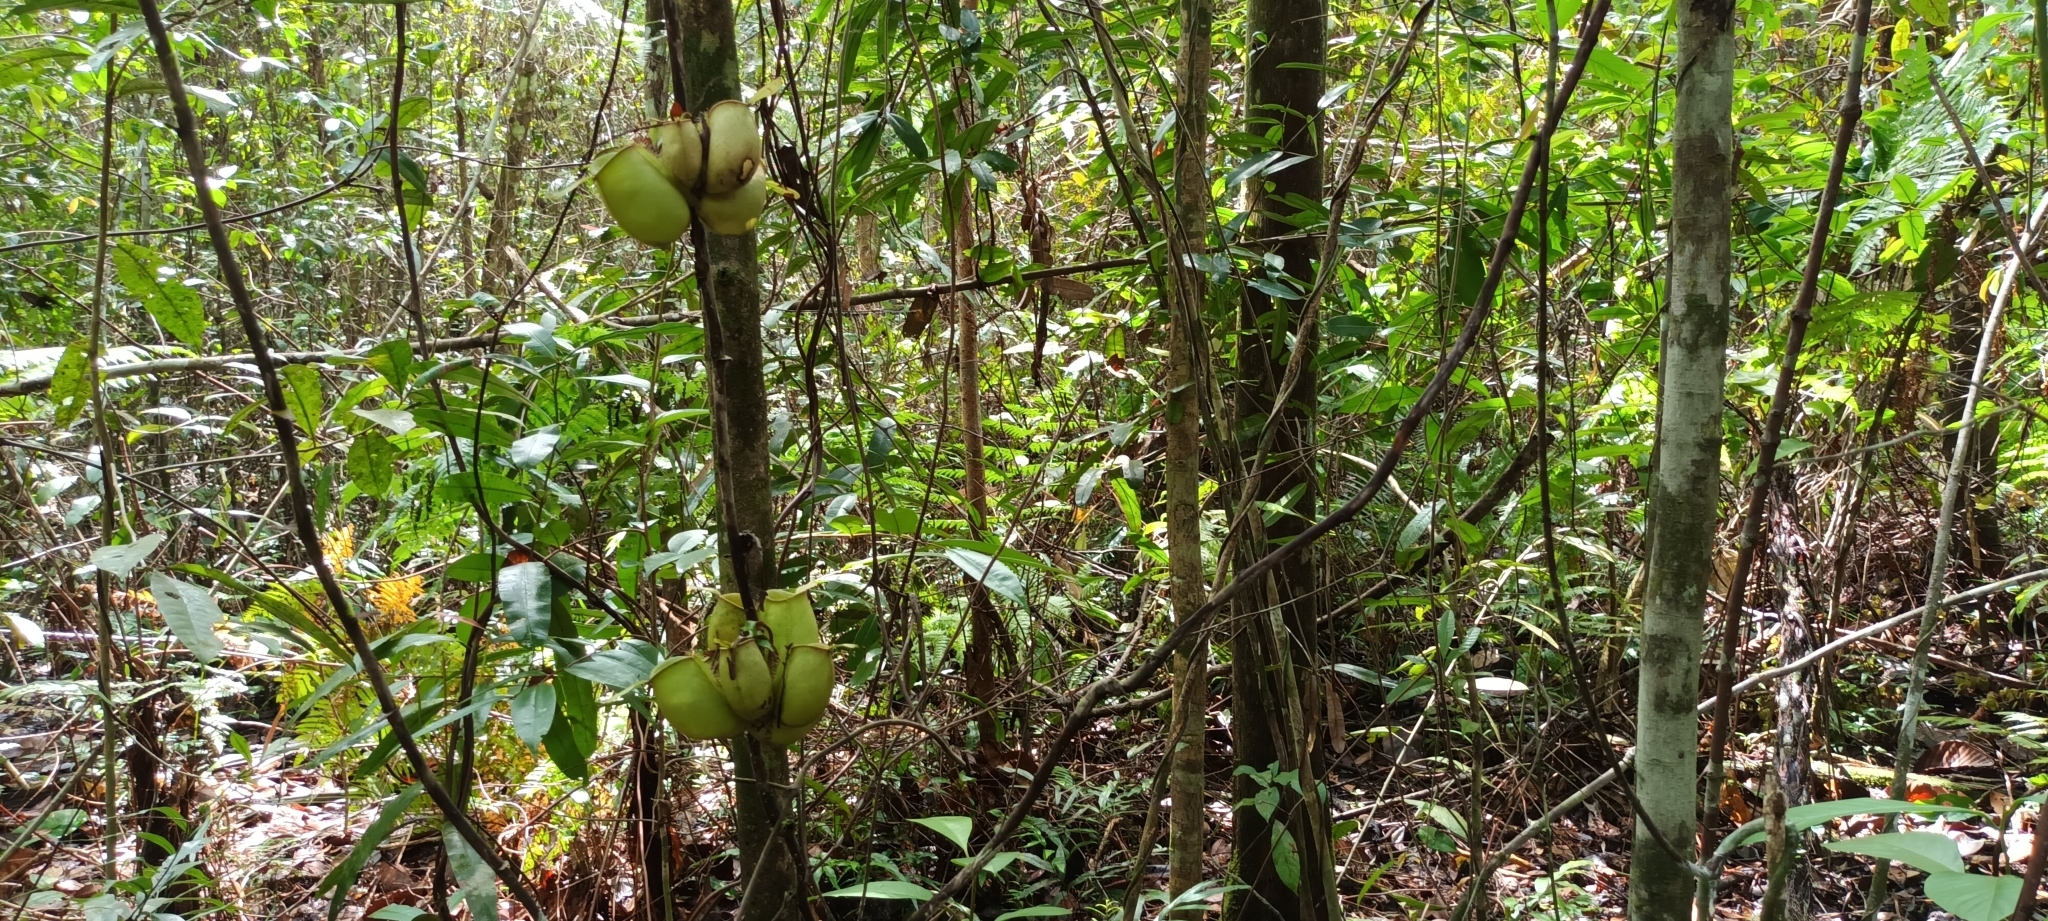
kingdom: Plantae
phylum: Tracheophyta
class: Magnoliopsida
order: Caryophyllales
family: Nepenthaceae
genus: Nepenthes
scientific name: Nepenthes ampullaria
